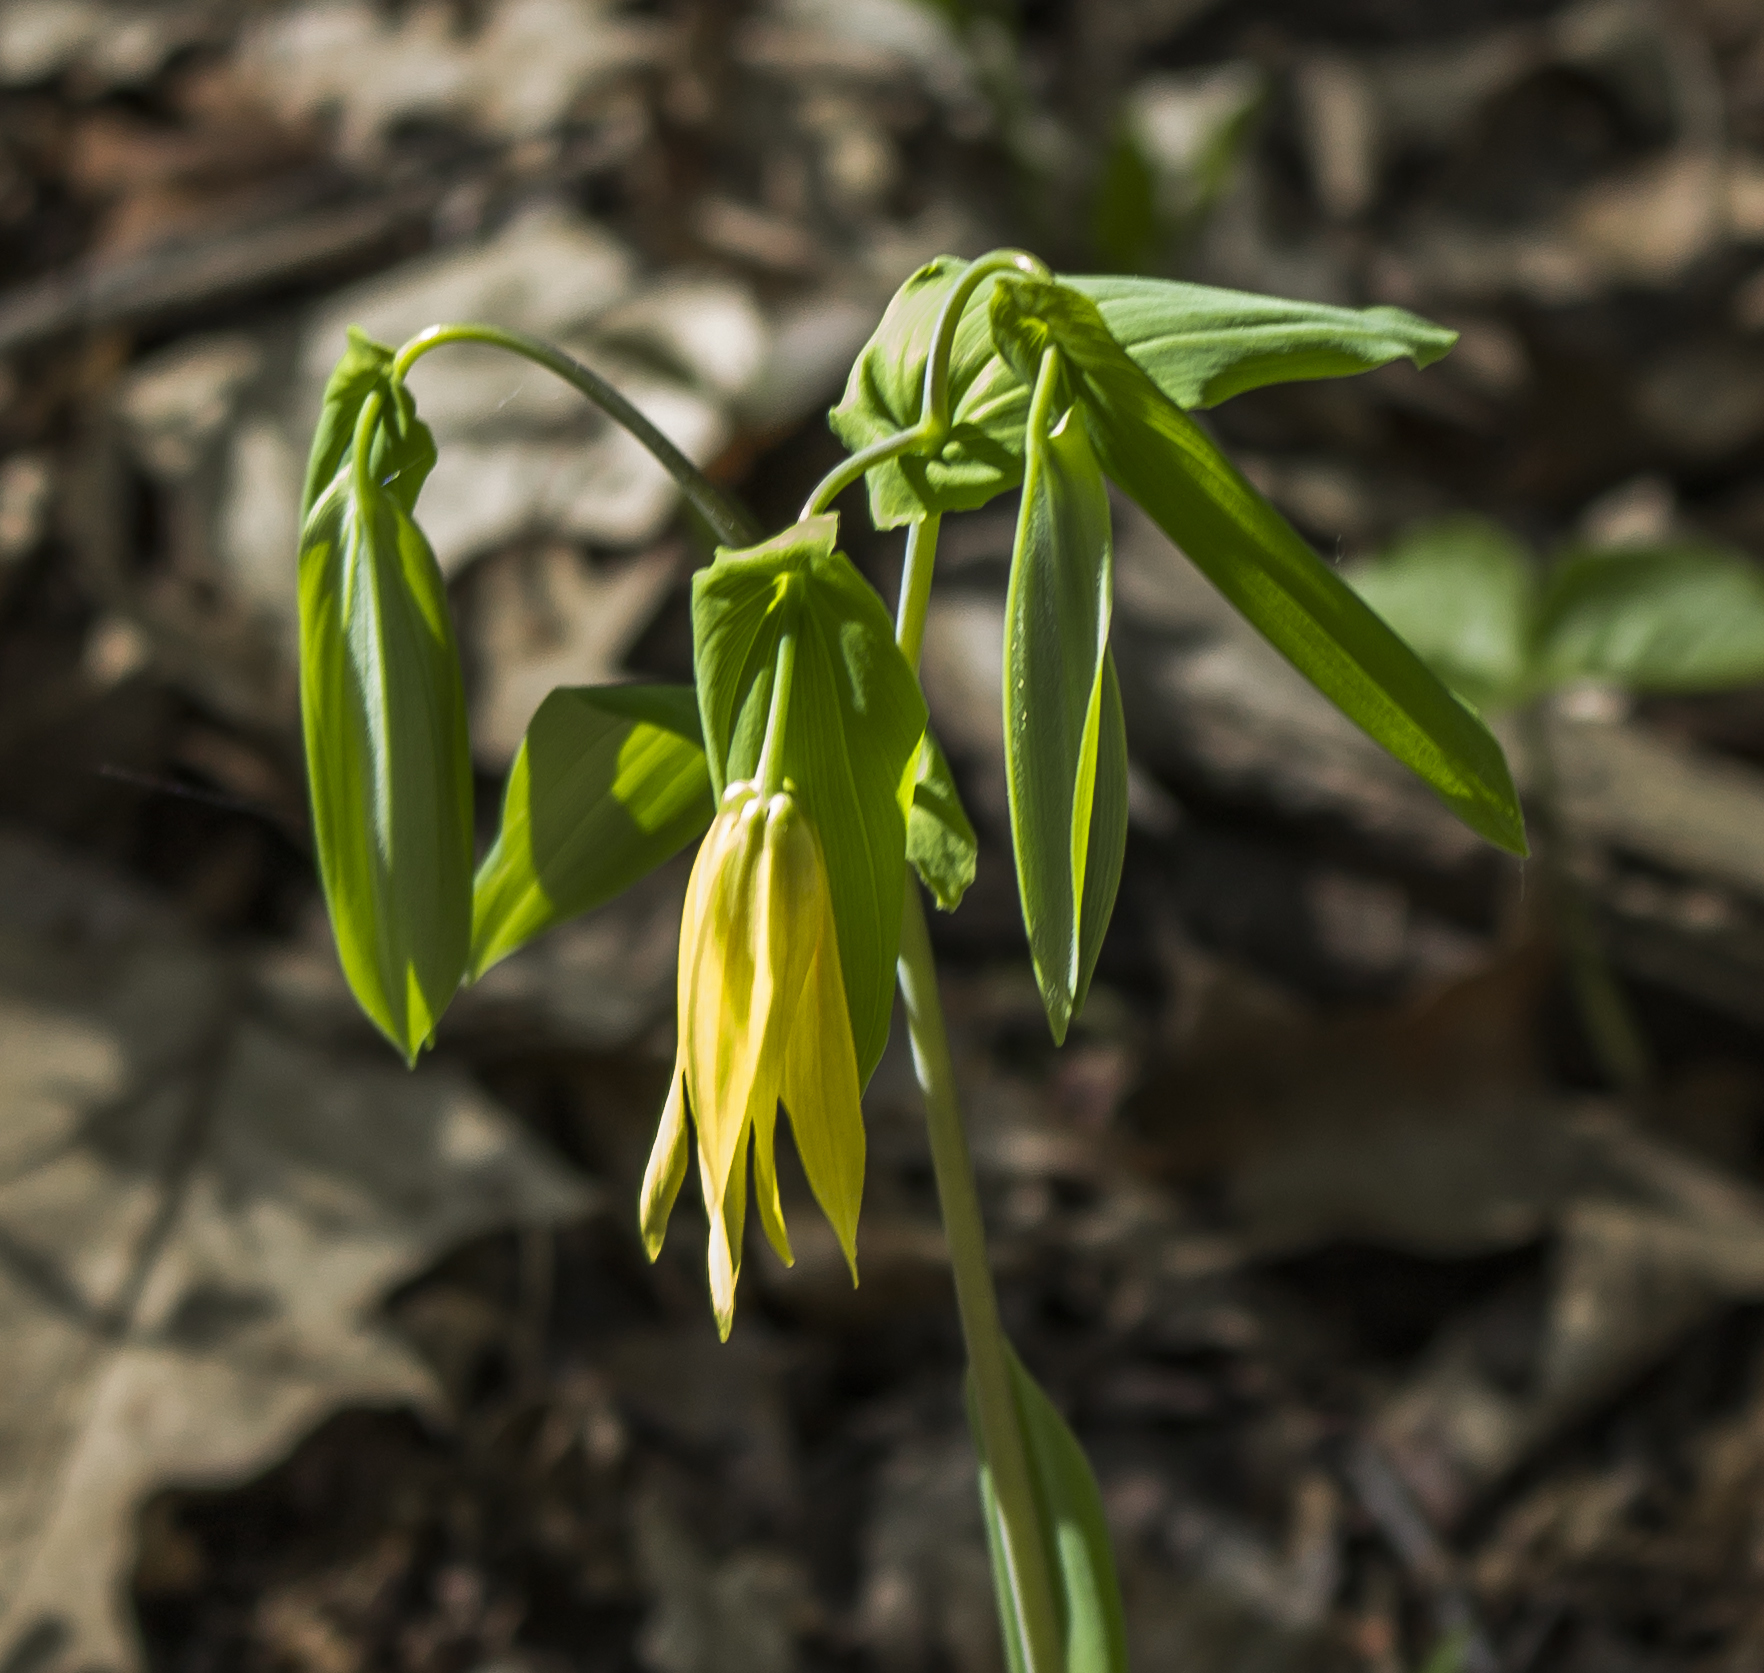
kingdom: Plantae
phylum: Tracheophyta
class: Liliopsida
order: Liliales
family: Colchicaceae
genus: Uvularia
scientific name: Uvularia grandiflora
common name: Bellwort
